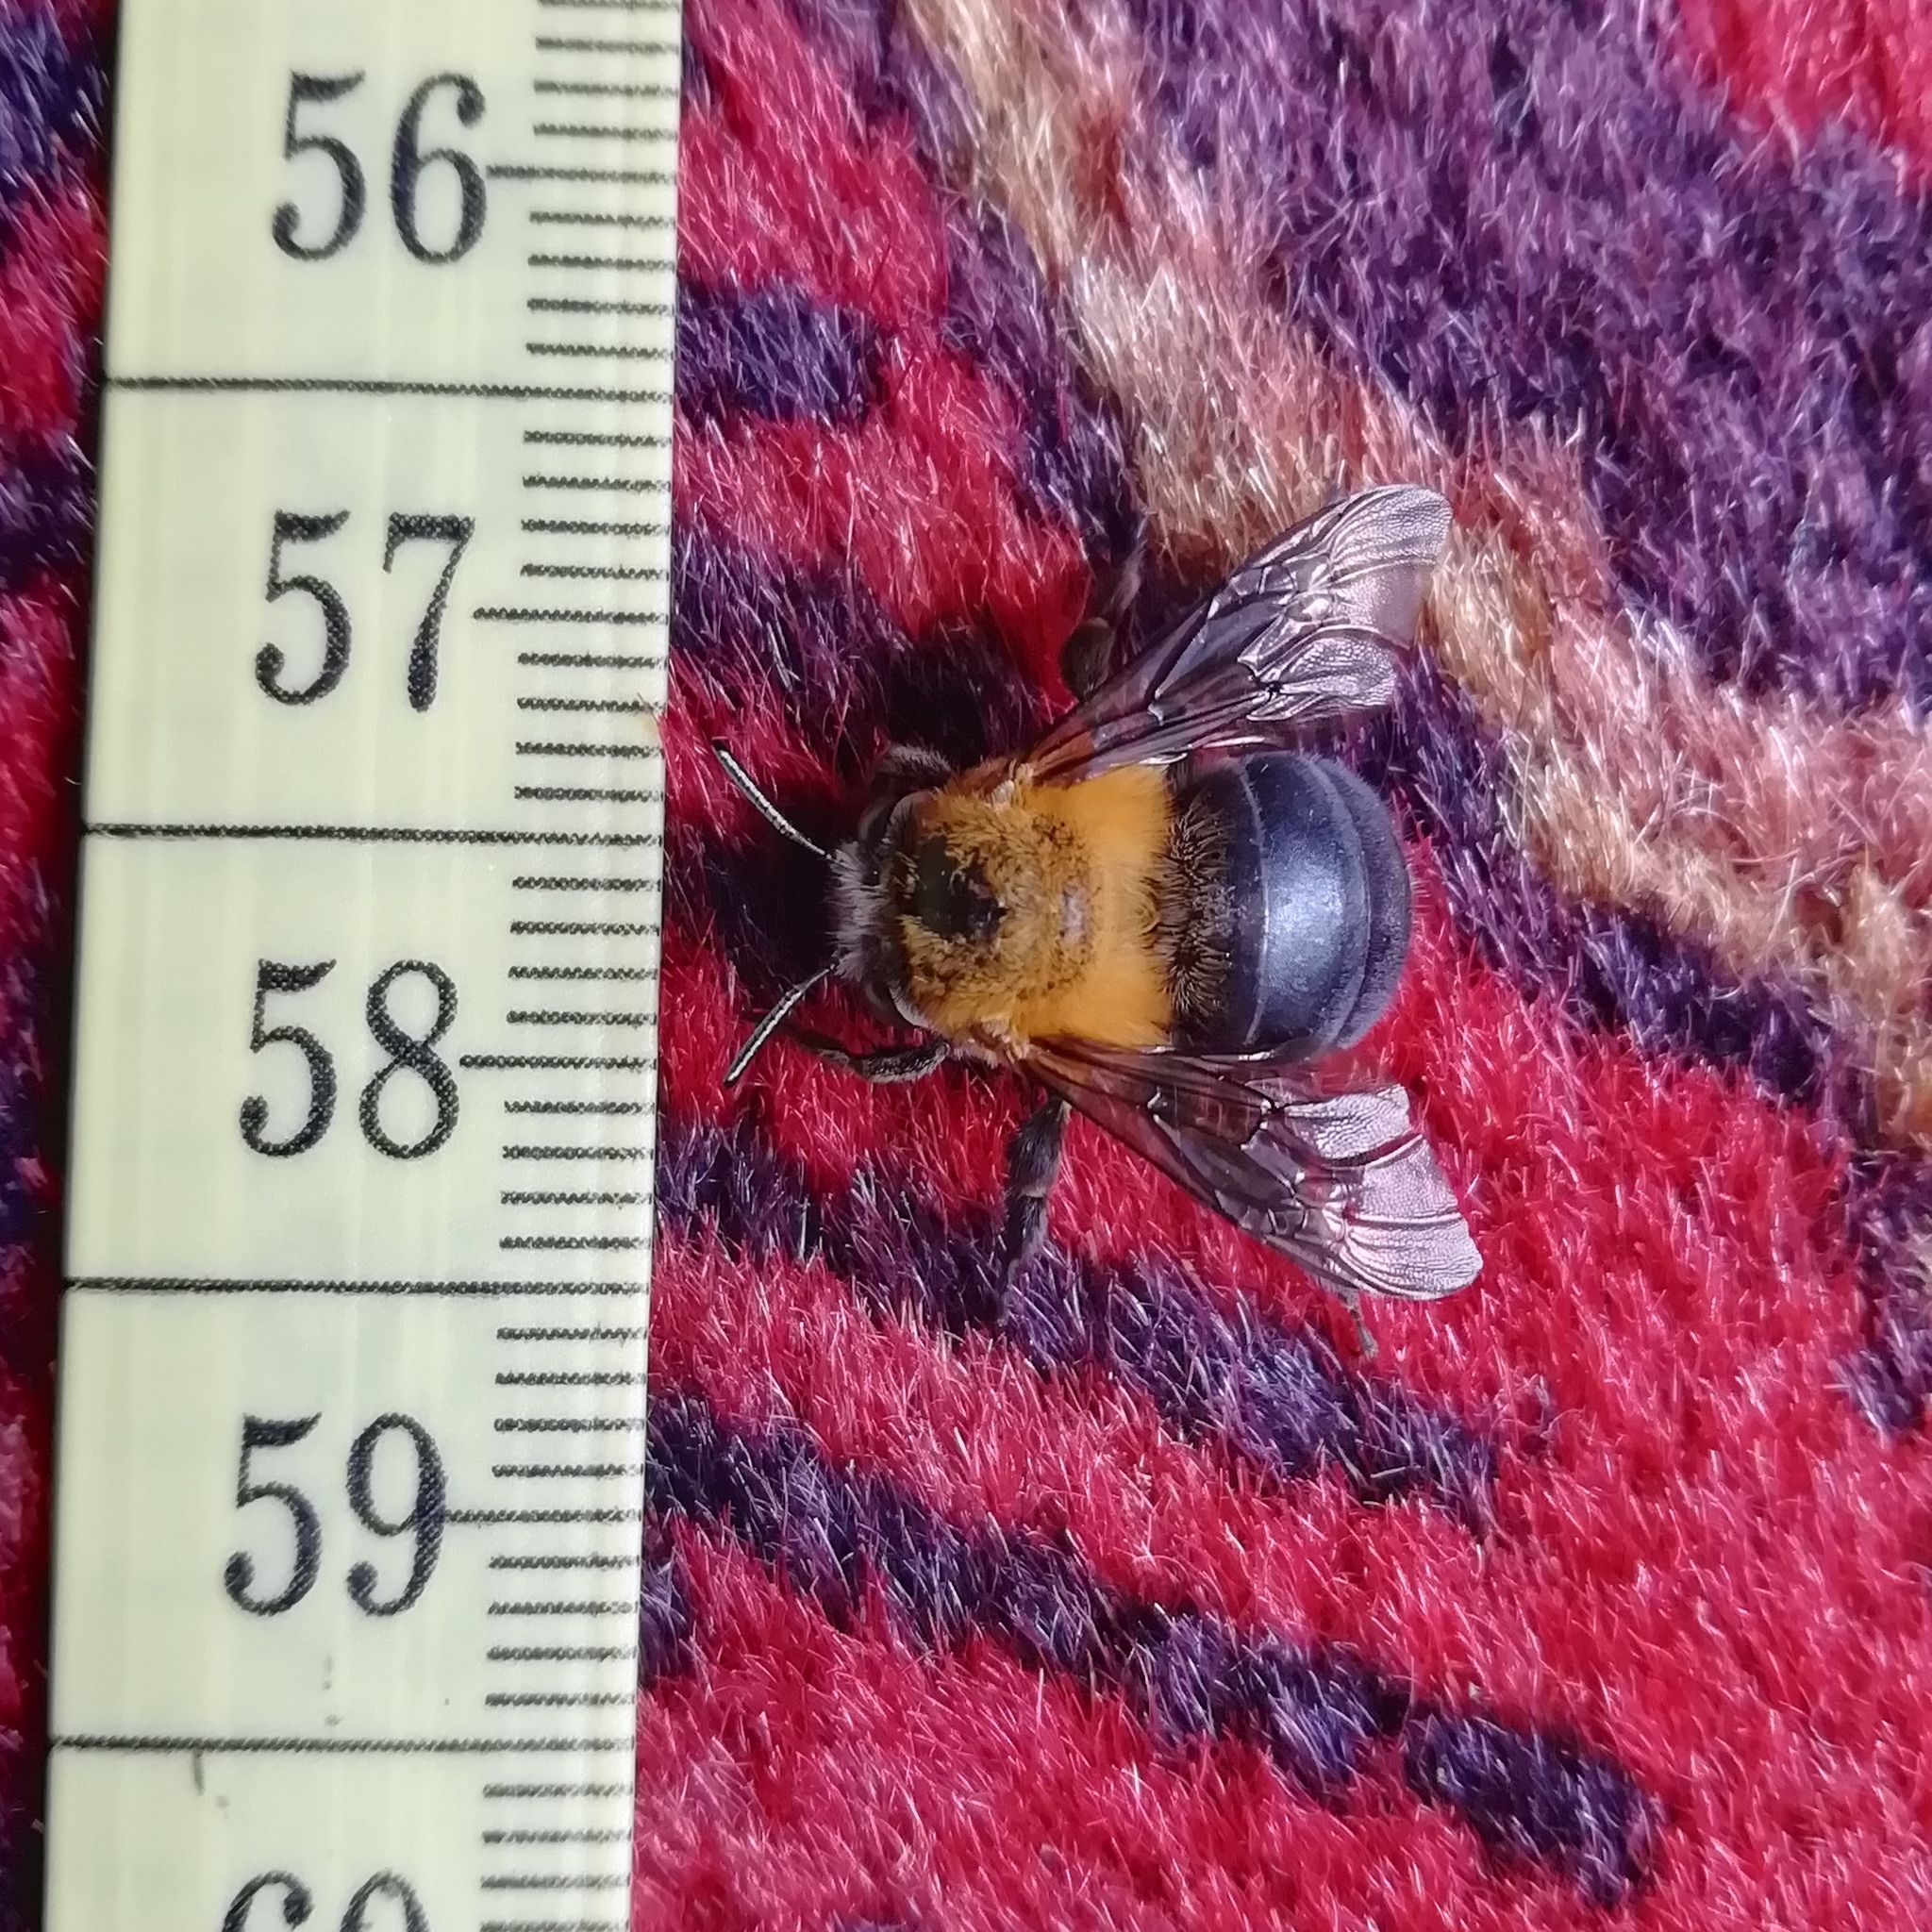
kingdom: Animalia
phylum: Arthropoda
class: Insecta
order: Hymenoptera
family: Apidae
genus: Amegilla
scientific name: Amegilla acraensis
